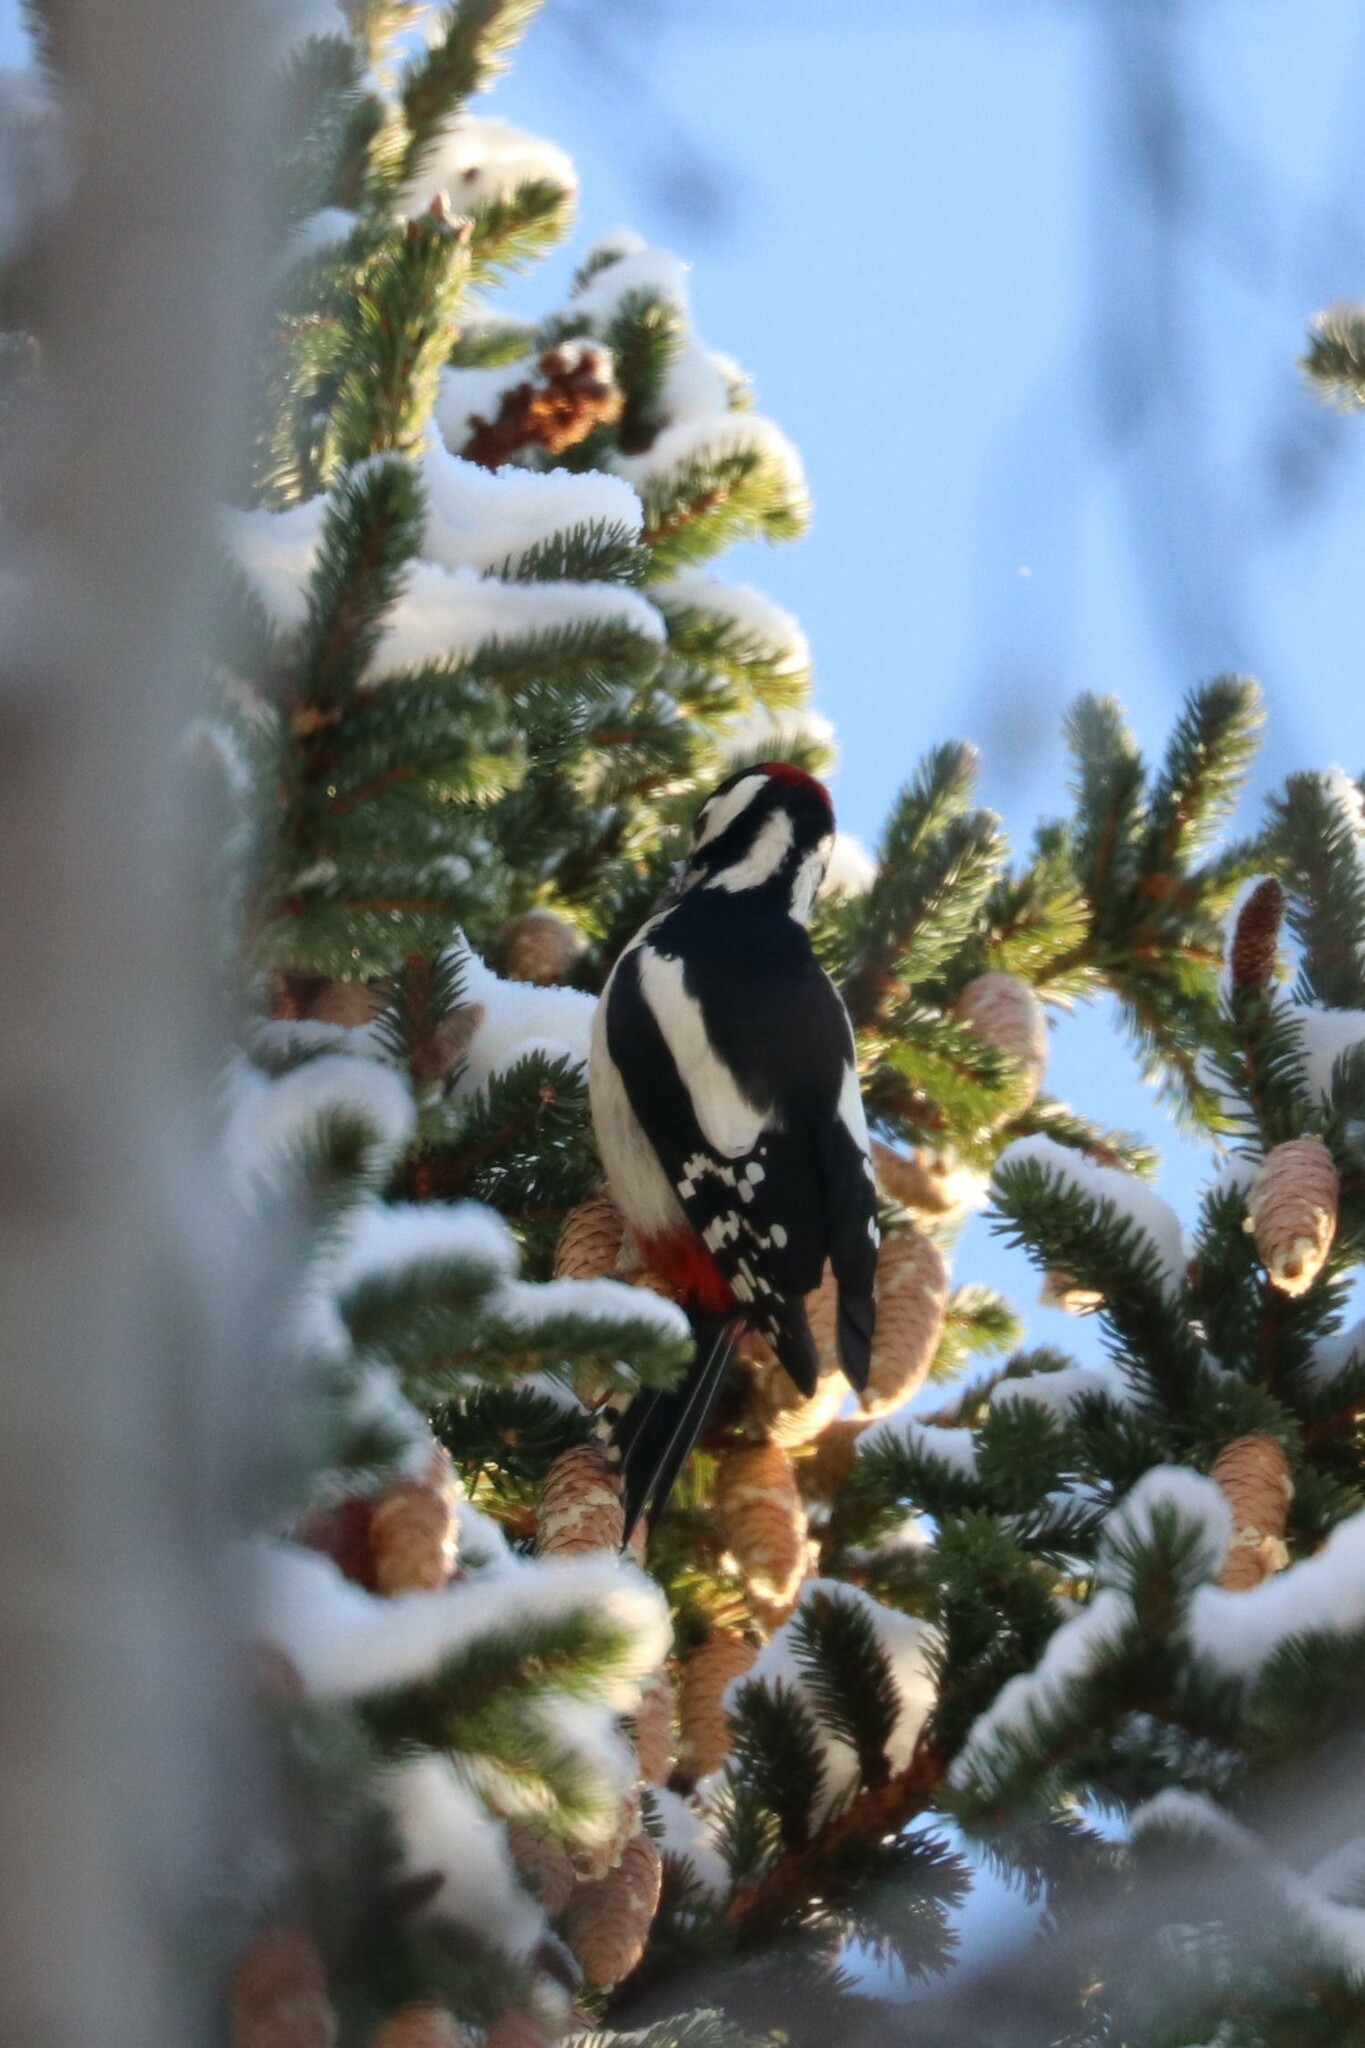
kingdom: Animalia
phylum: Chordata
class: Aves
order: Piciformes
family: Picidae
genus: Dendrocopos
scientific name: Dendrocopos major
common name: Great spotted woodpecker
